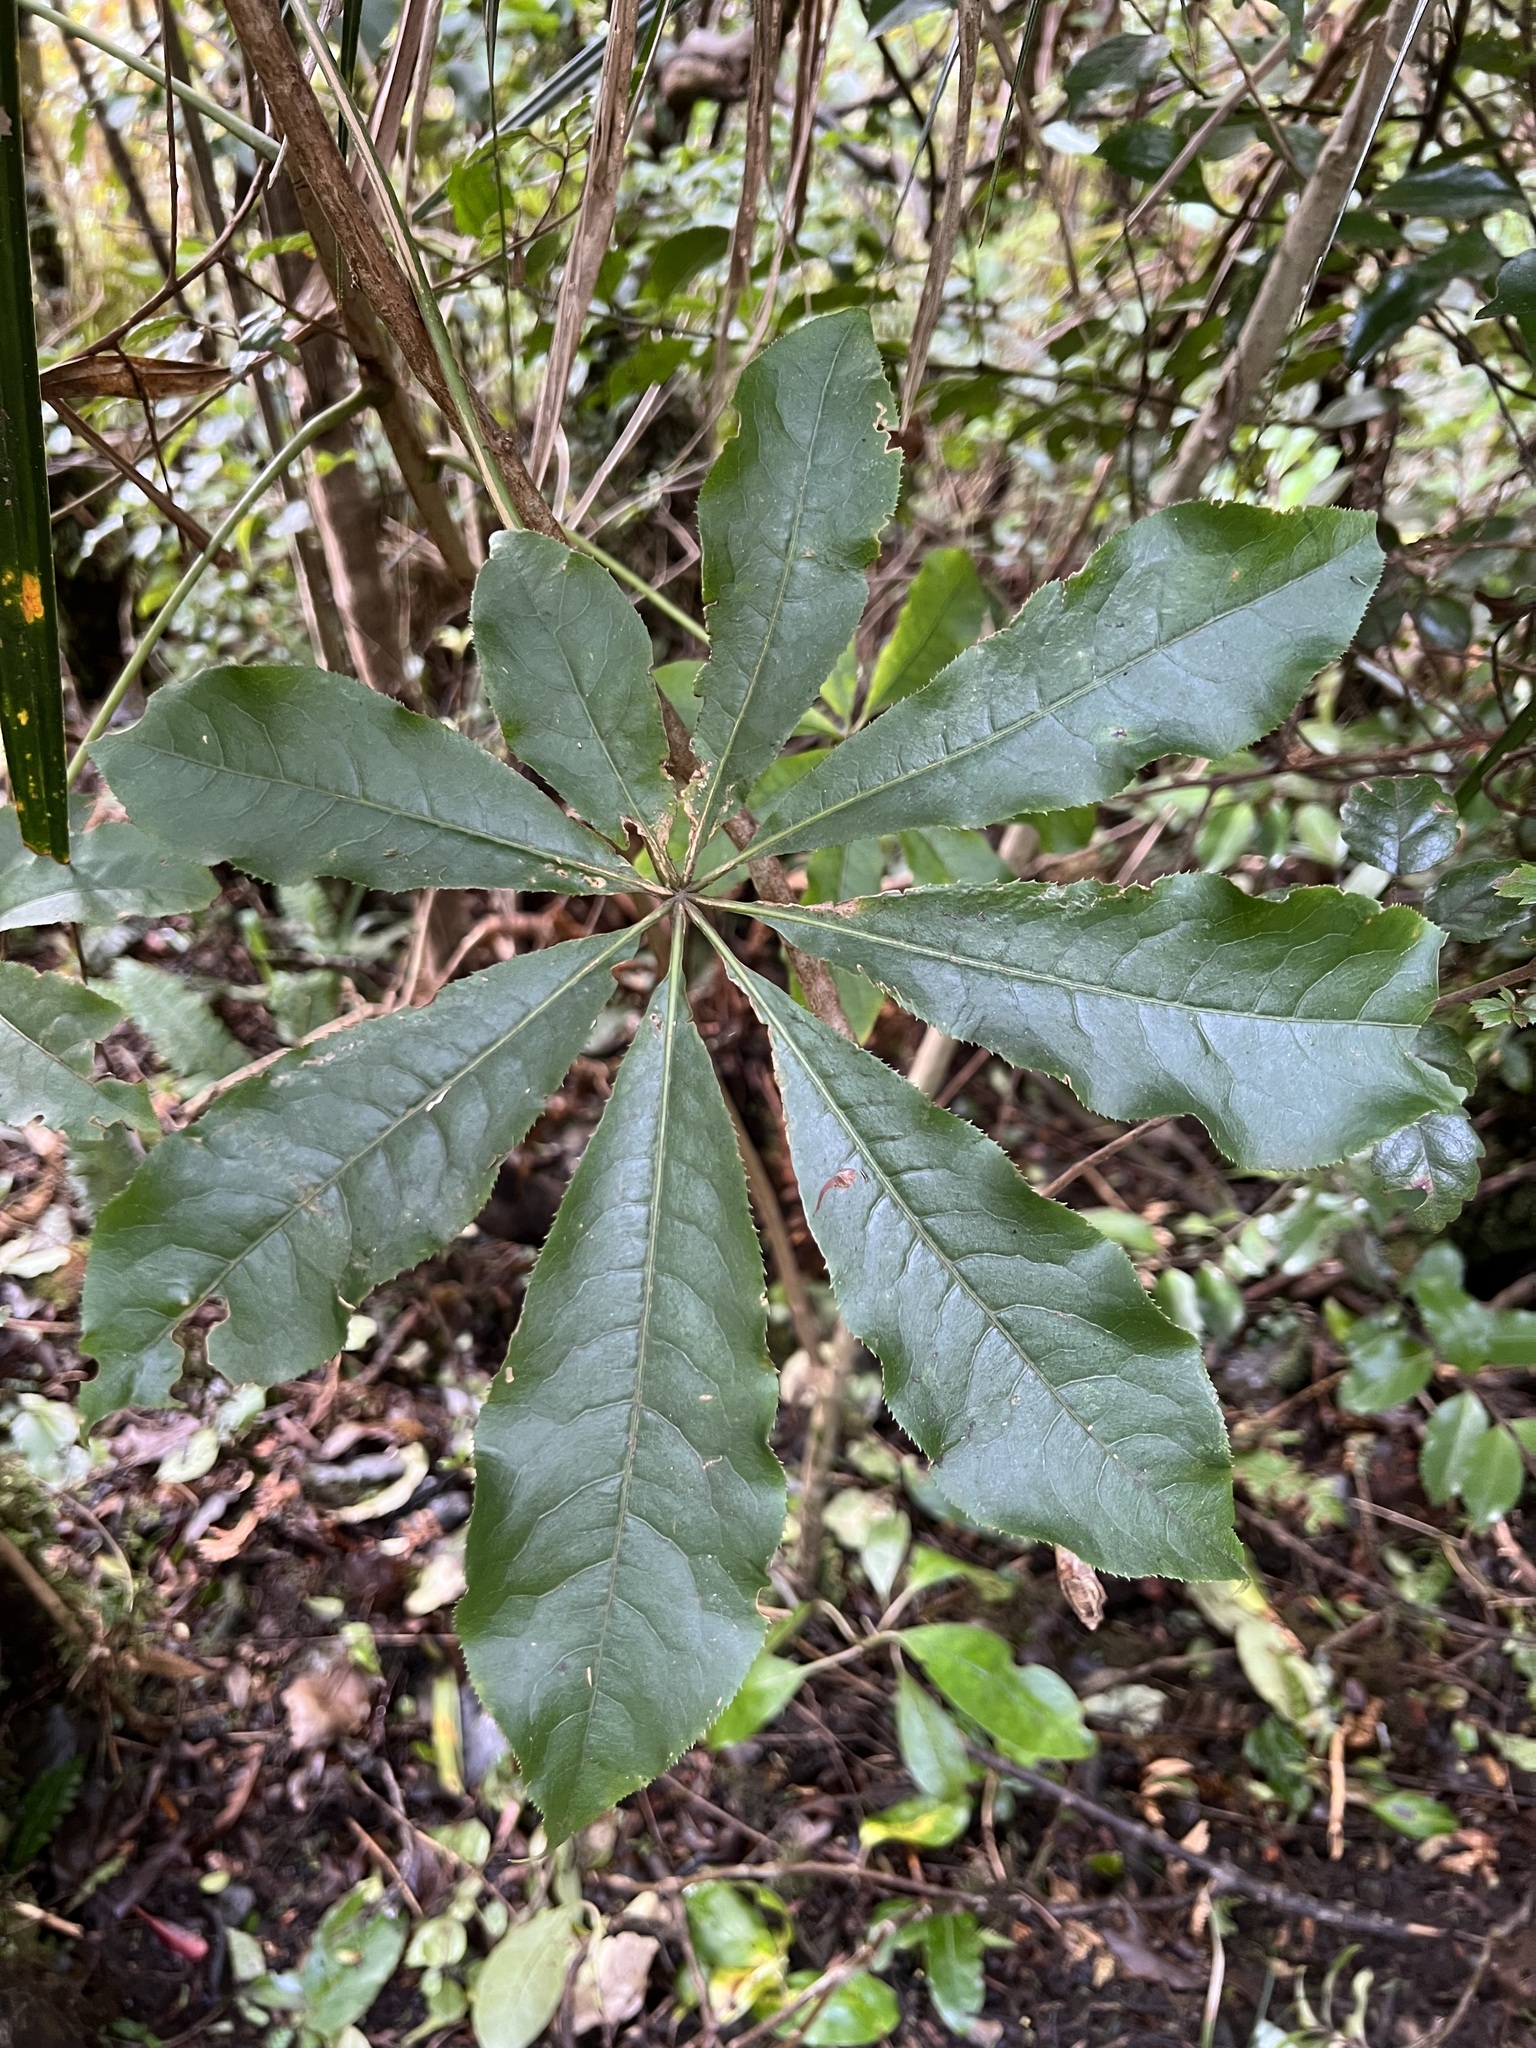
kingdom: Plantae
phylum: Tracheophyta
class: Magnoliopsida
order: Apiales
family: Araliaceae
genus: Schefflera
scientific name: Schefflera digitata
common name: Pate
